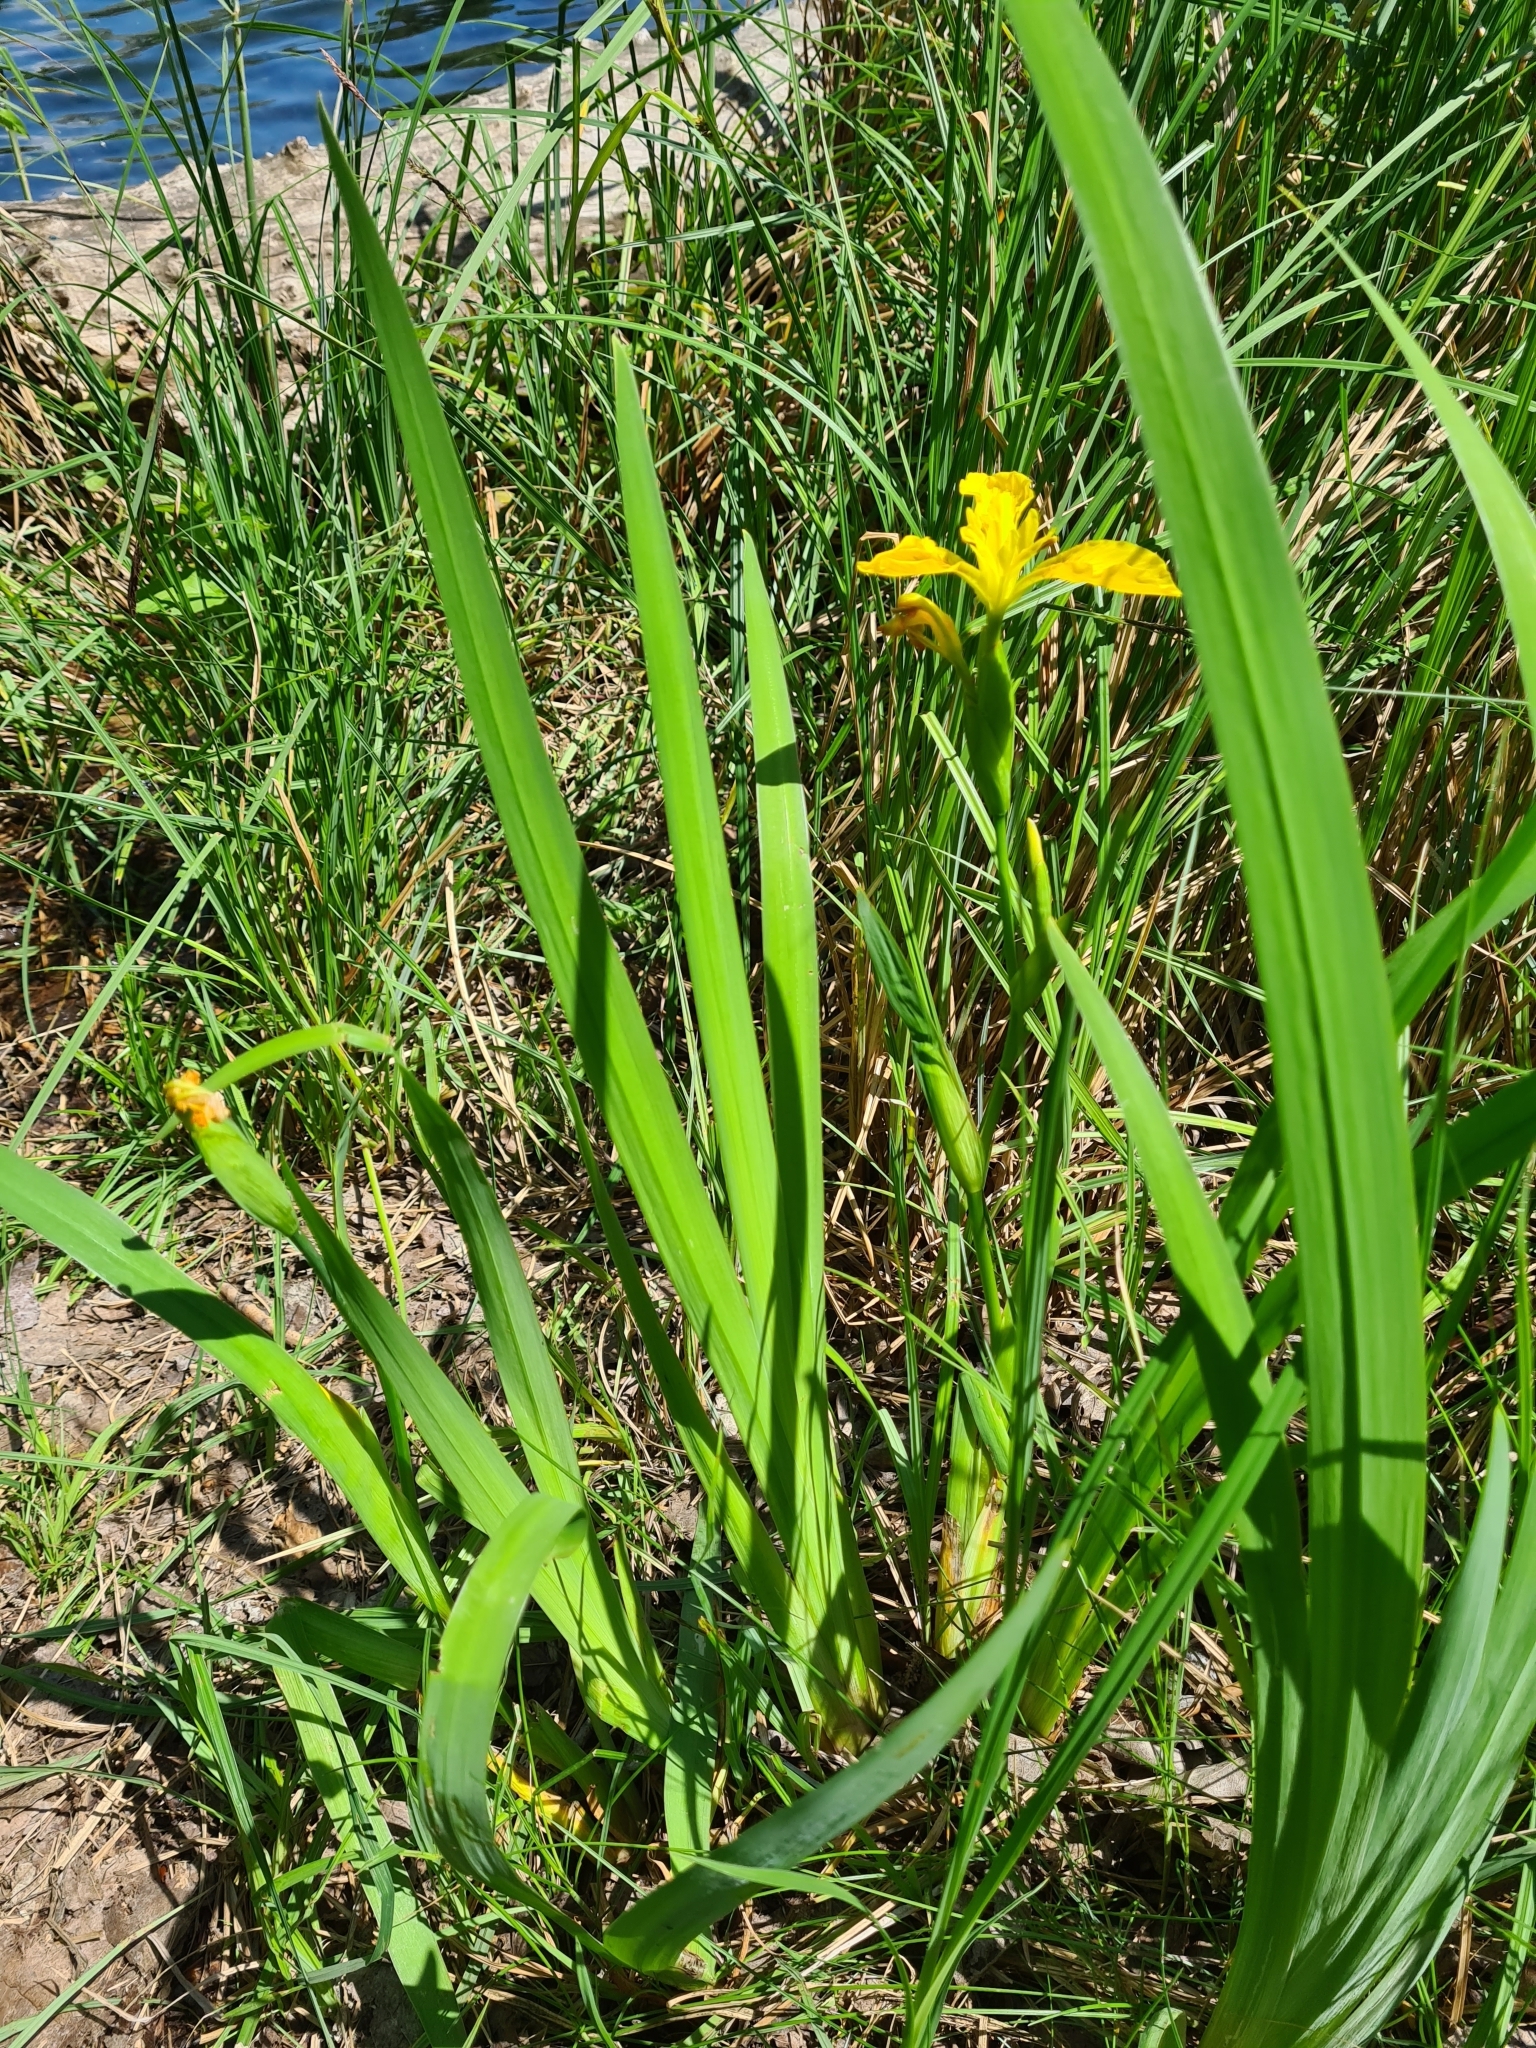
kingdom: Plantae
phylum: Tracheophyta
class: Liliopsida
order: Asparagales
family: Iridaceae
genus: Iris
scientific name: Iris pseudacorus
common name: Yellow flag
